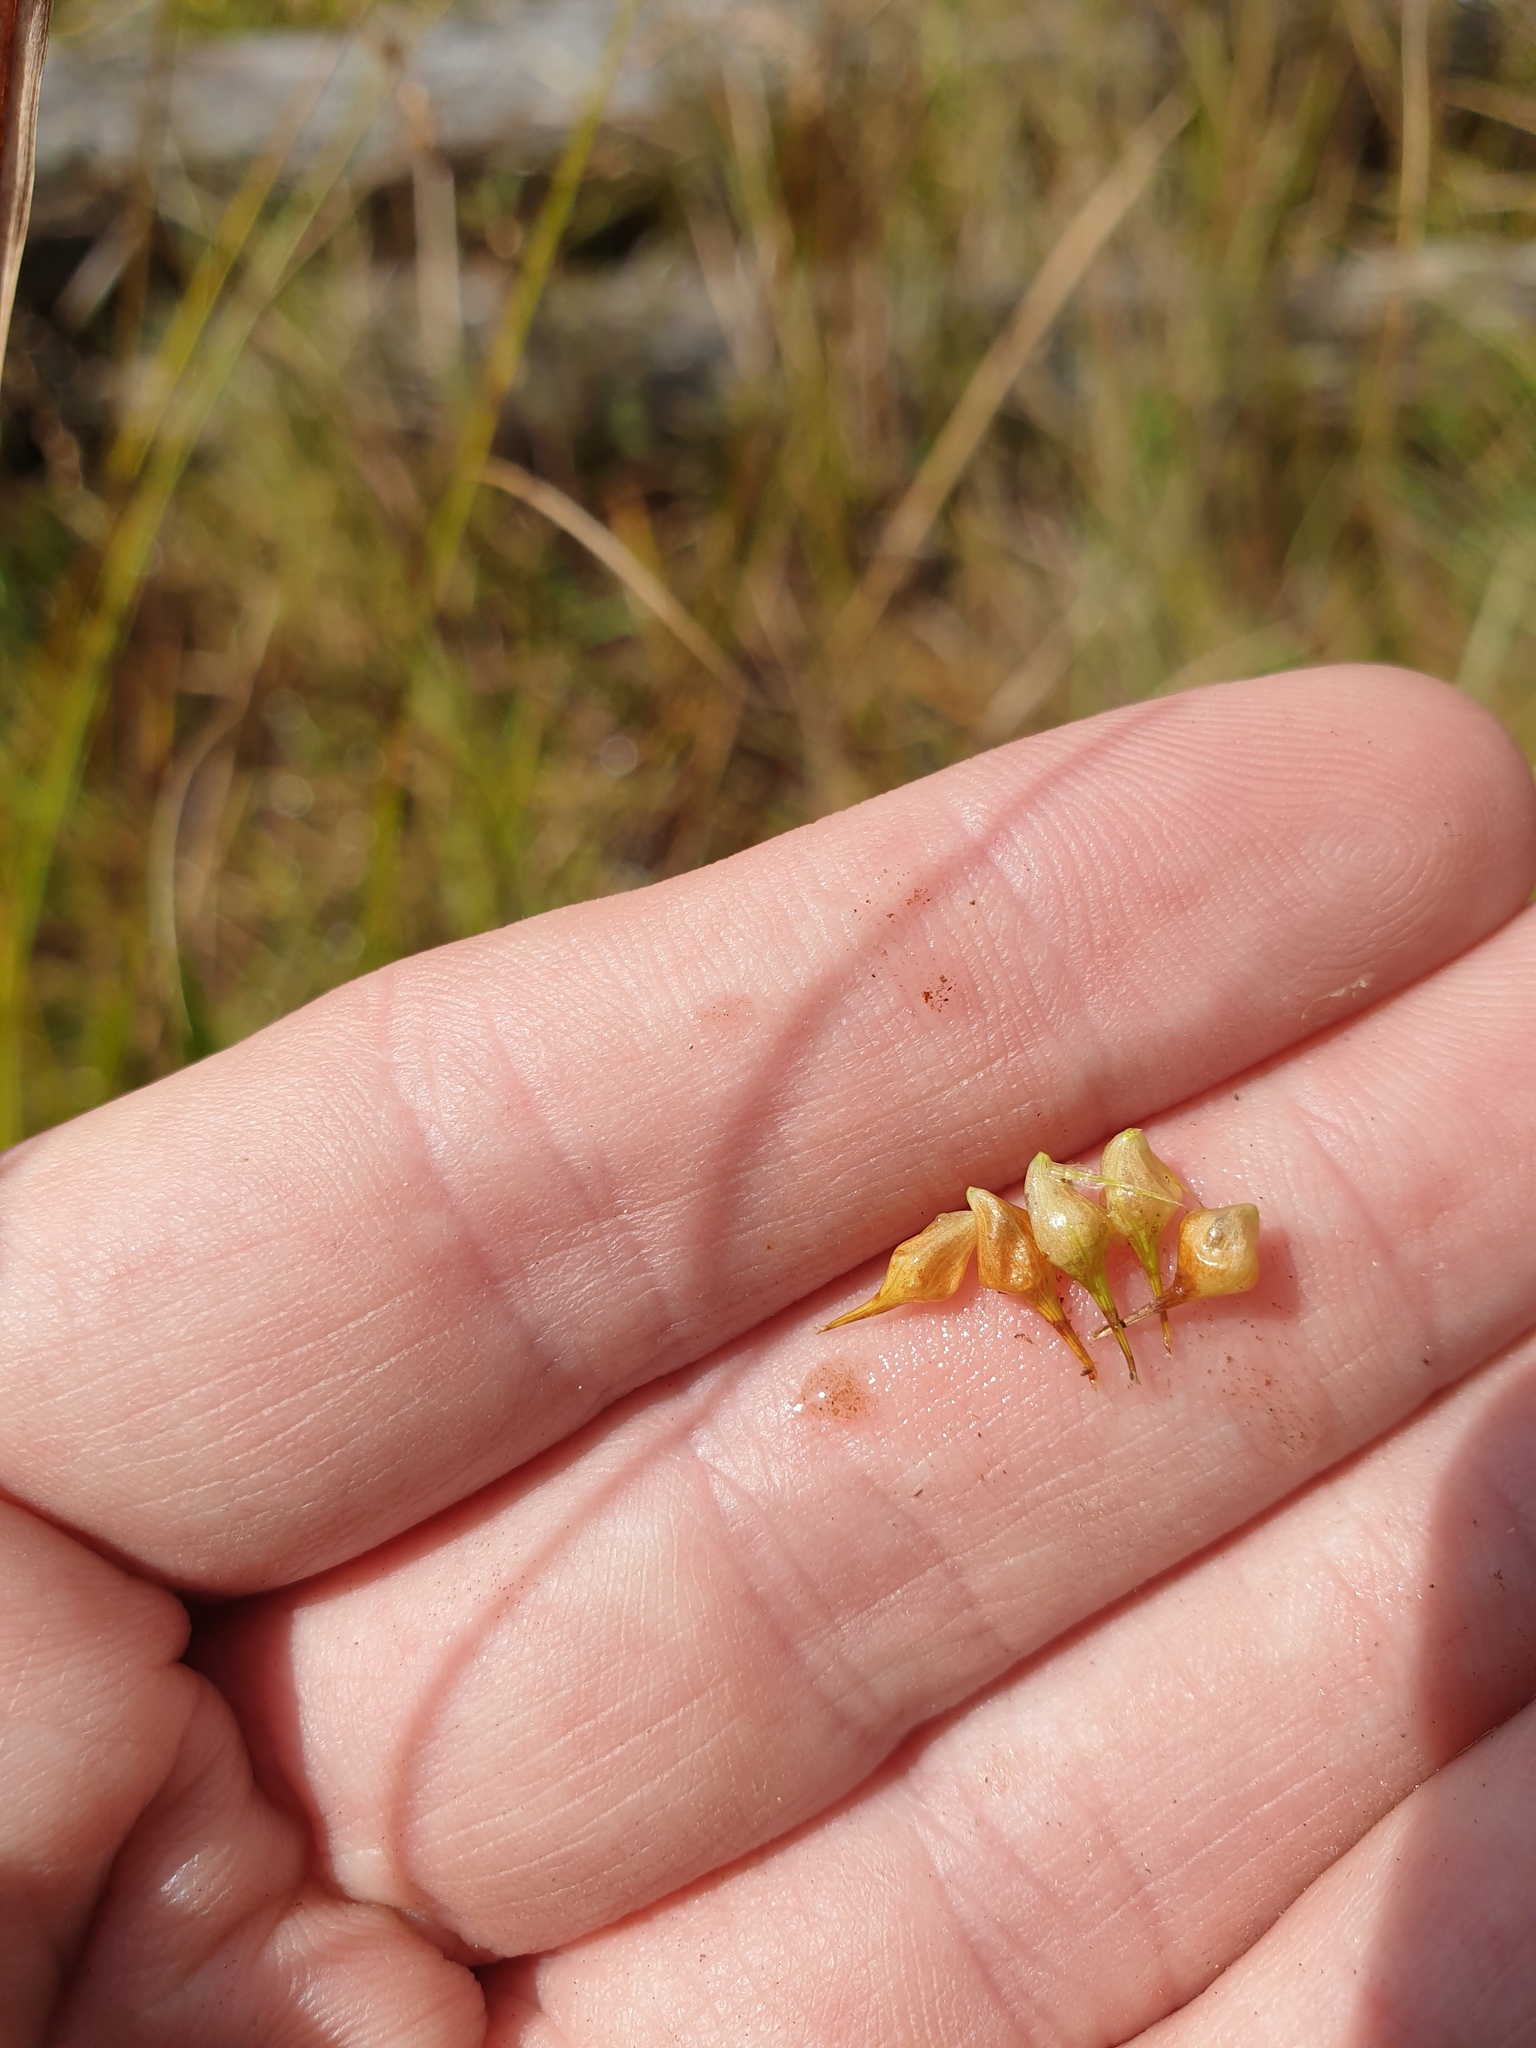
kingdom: Plantae
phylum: Tracheophyta
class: Liliopsida
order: Poales
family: Cyperaceae
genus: Carex
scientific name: Carex lurida
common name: Sallow sedge
